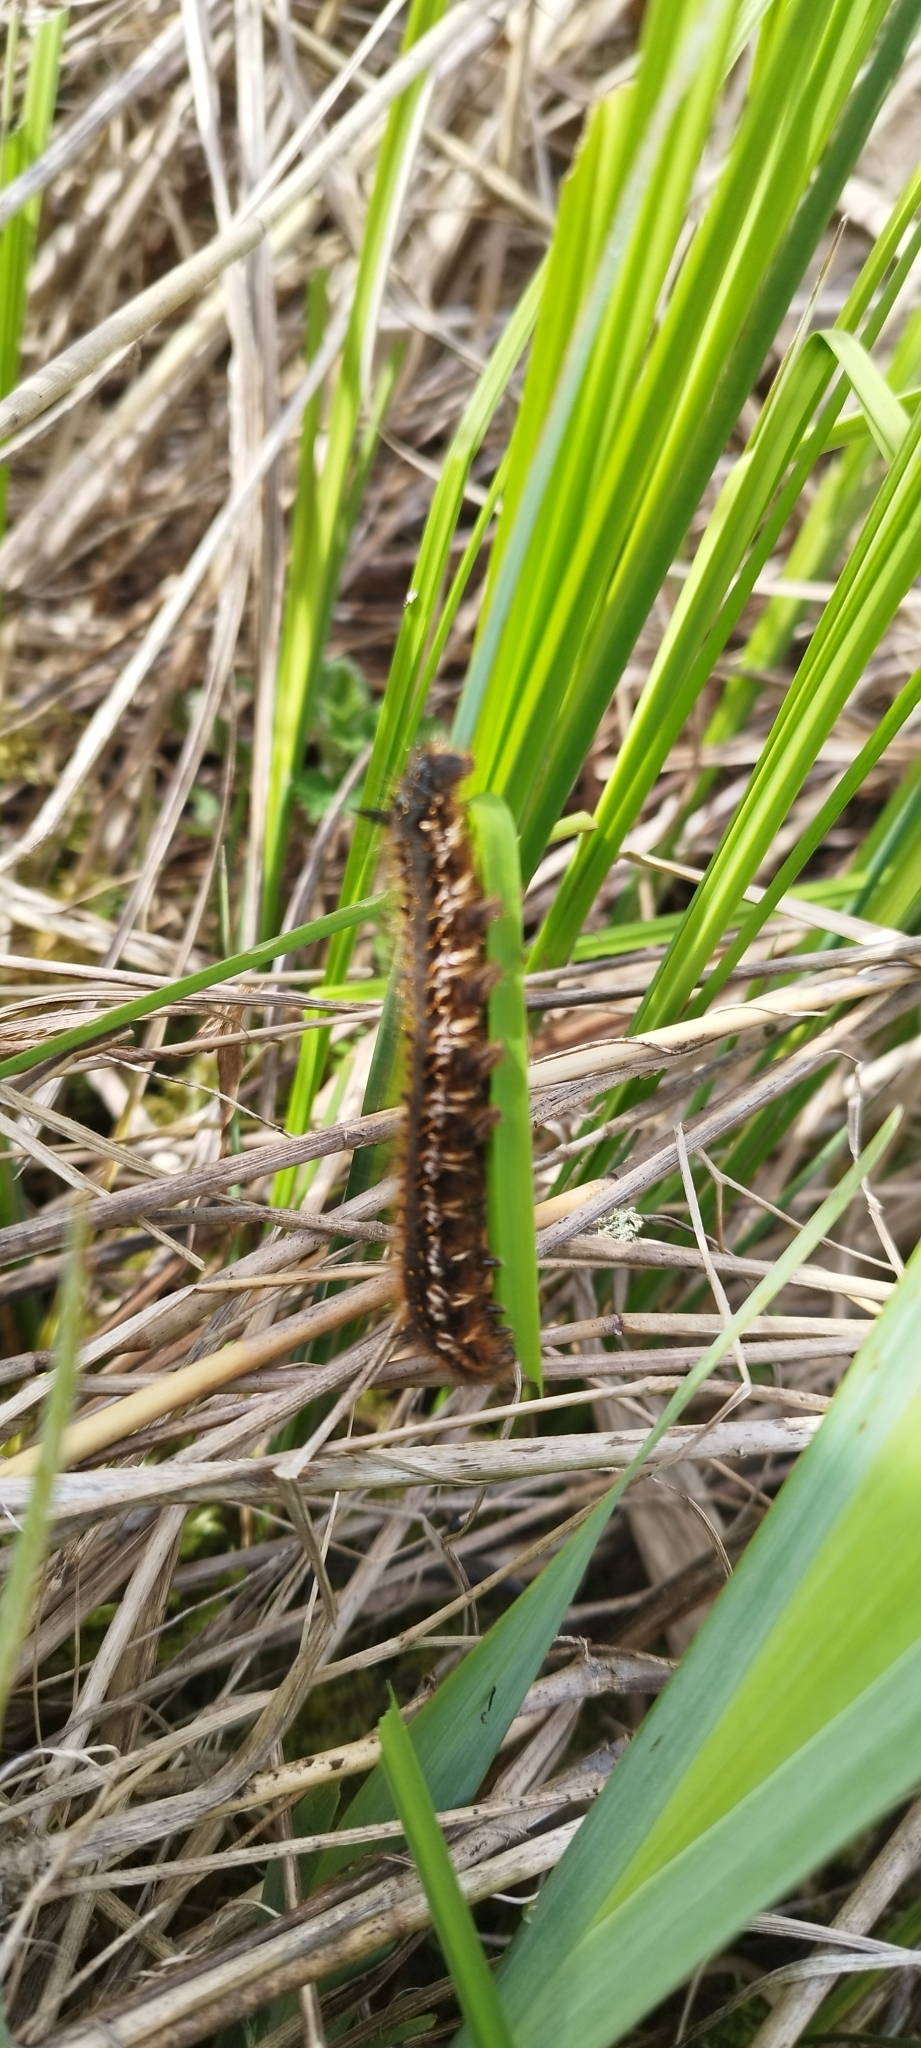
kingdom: Animalia
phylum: Arthropoda
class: Insecta
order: Lepidoptera
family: Lasiocampidae
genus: Euthrix
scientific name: Euthrix potatoria
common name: Drinker
